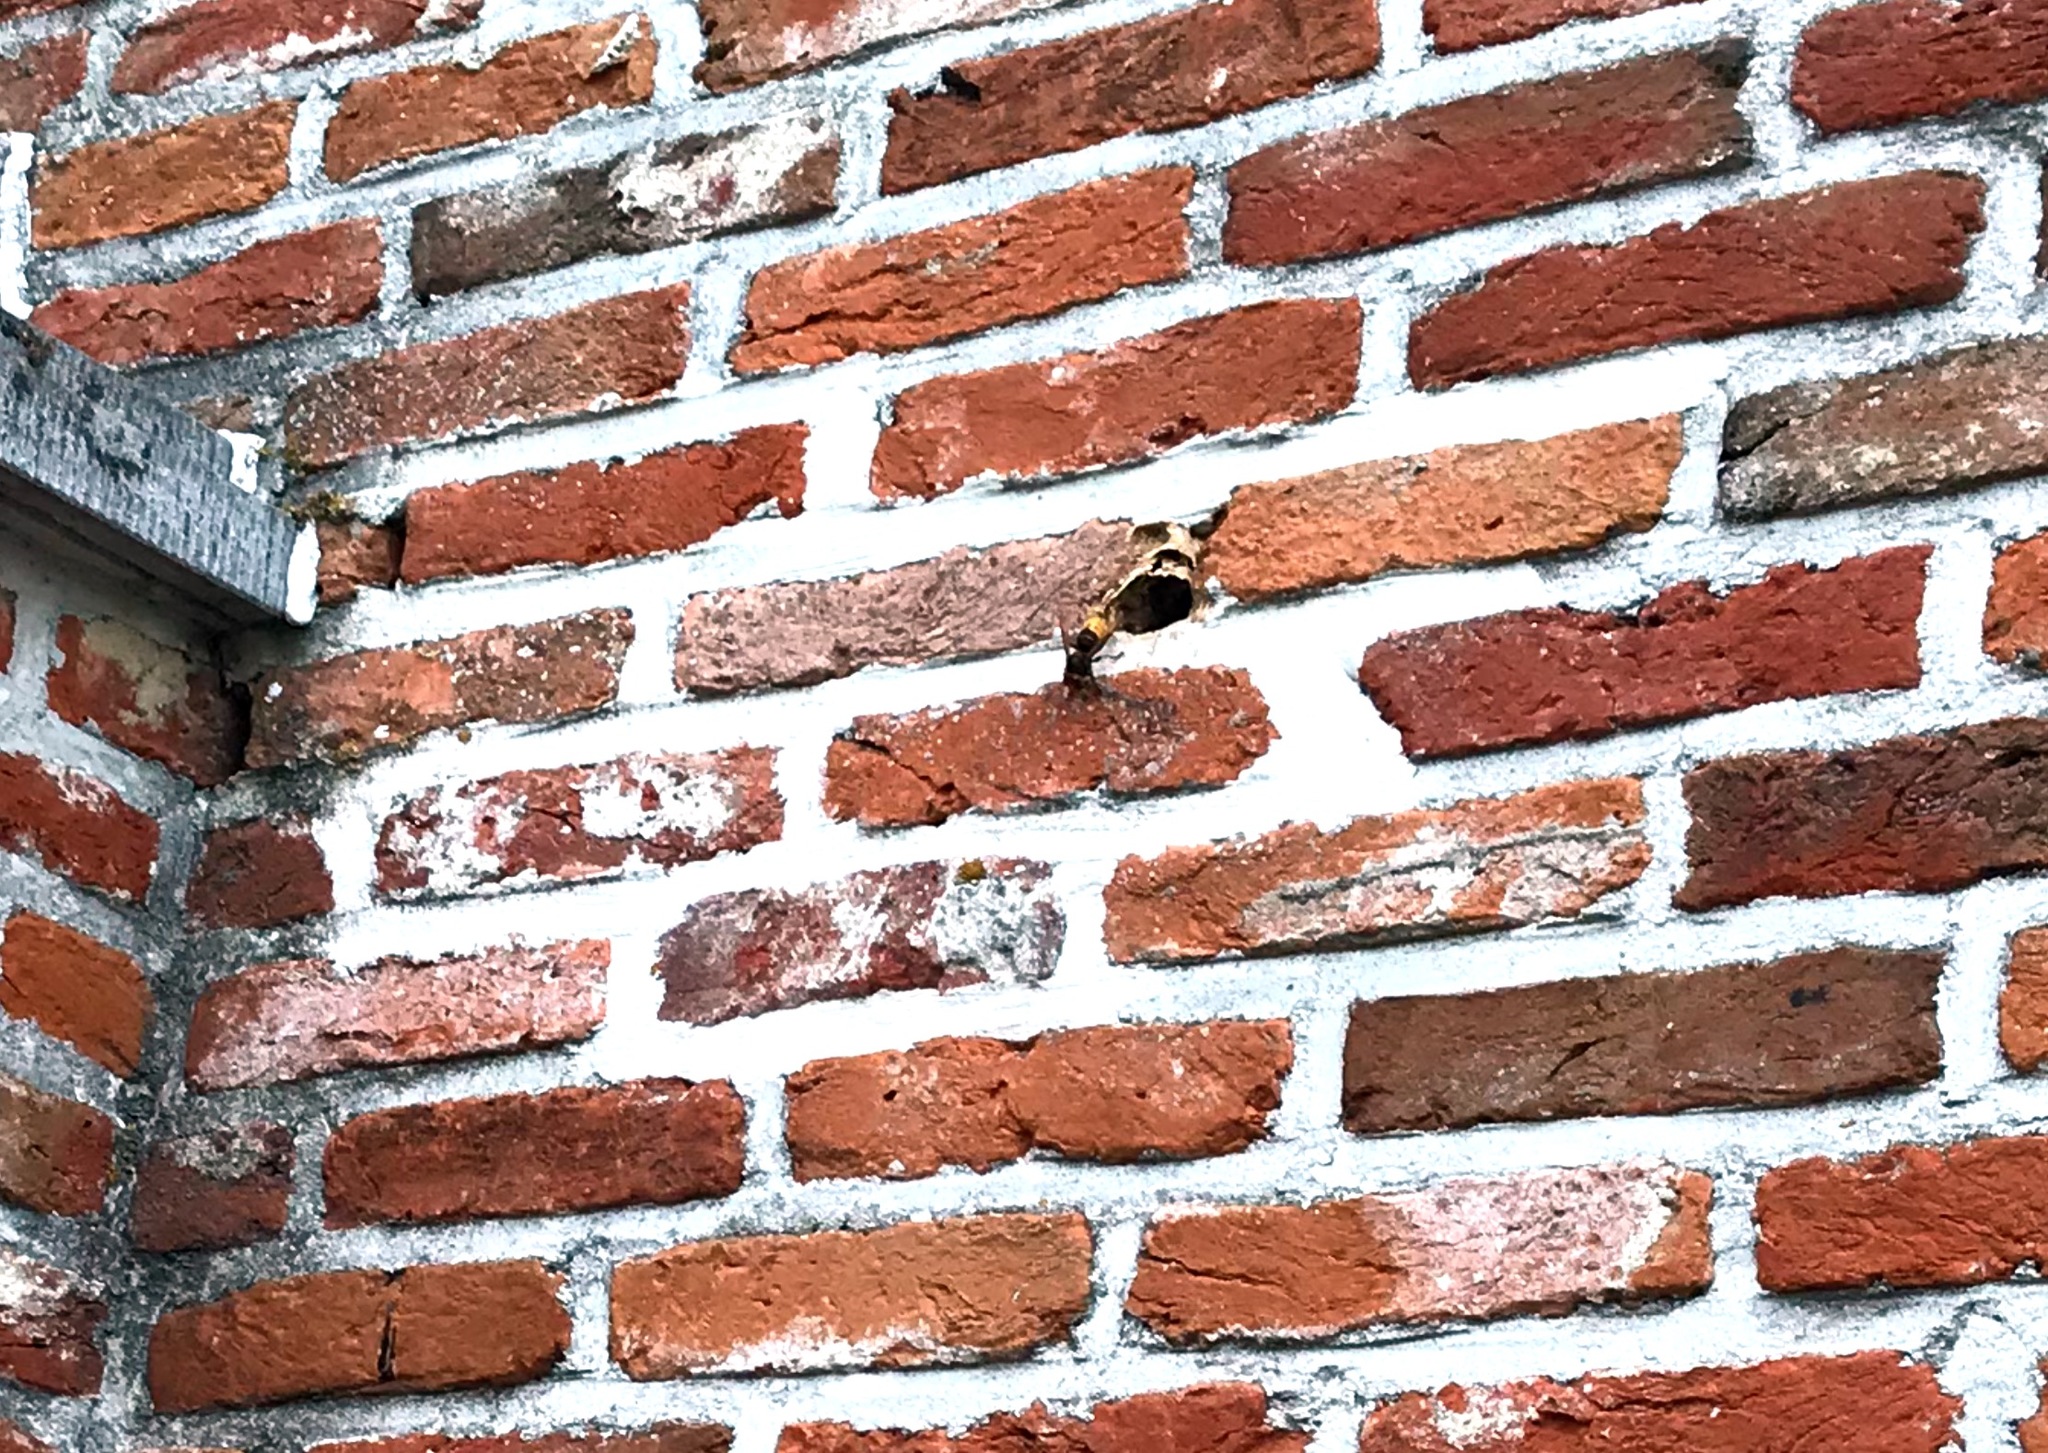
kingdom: Animalia
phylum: Arthropoda
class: Insecta
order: Hymenoptera
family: Vespidae
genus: Vespa
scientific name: Vespa crabro
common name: Hornet
